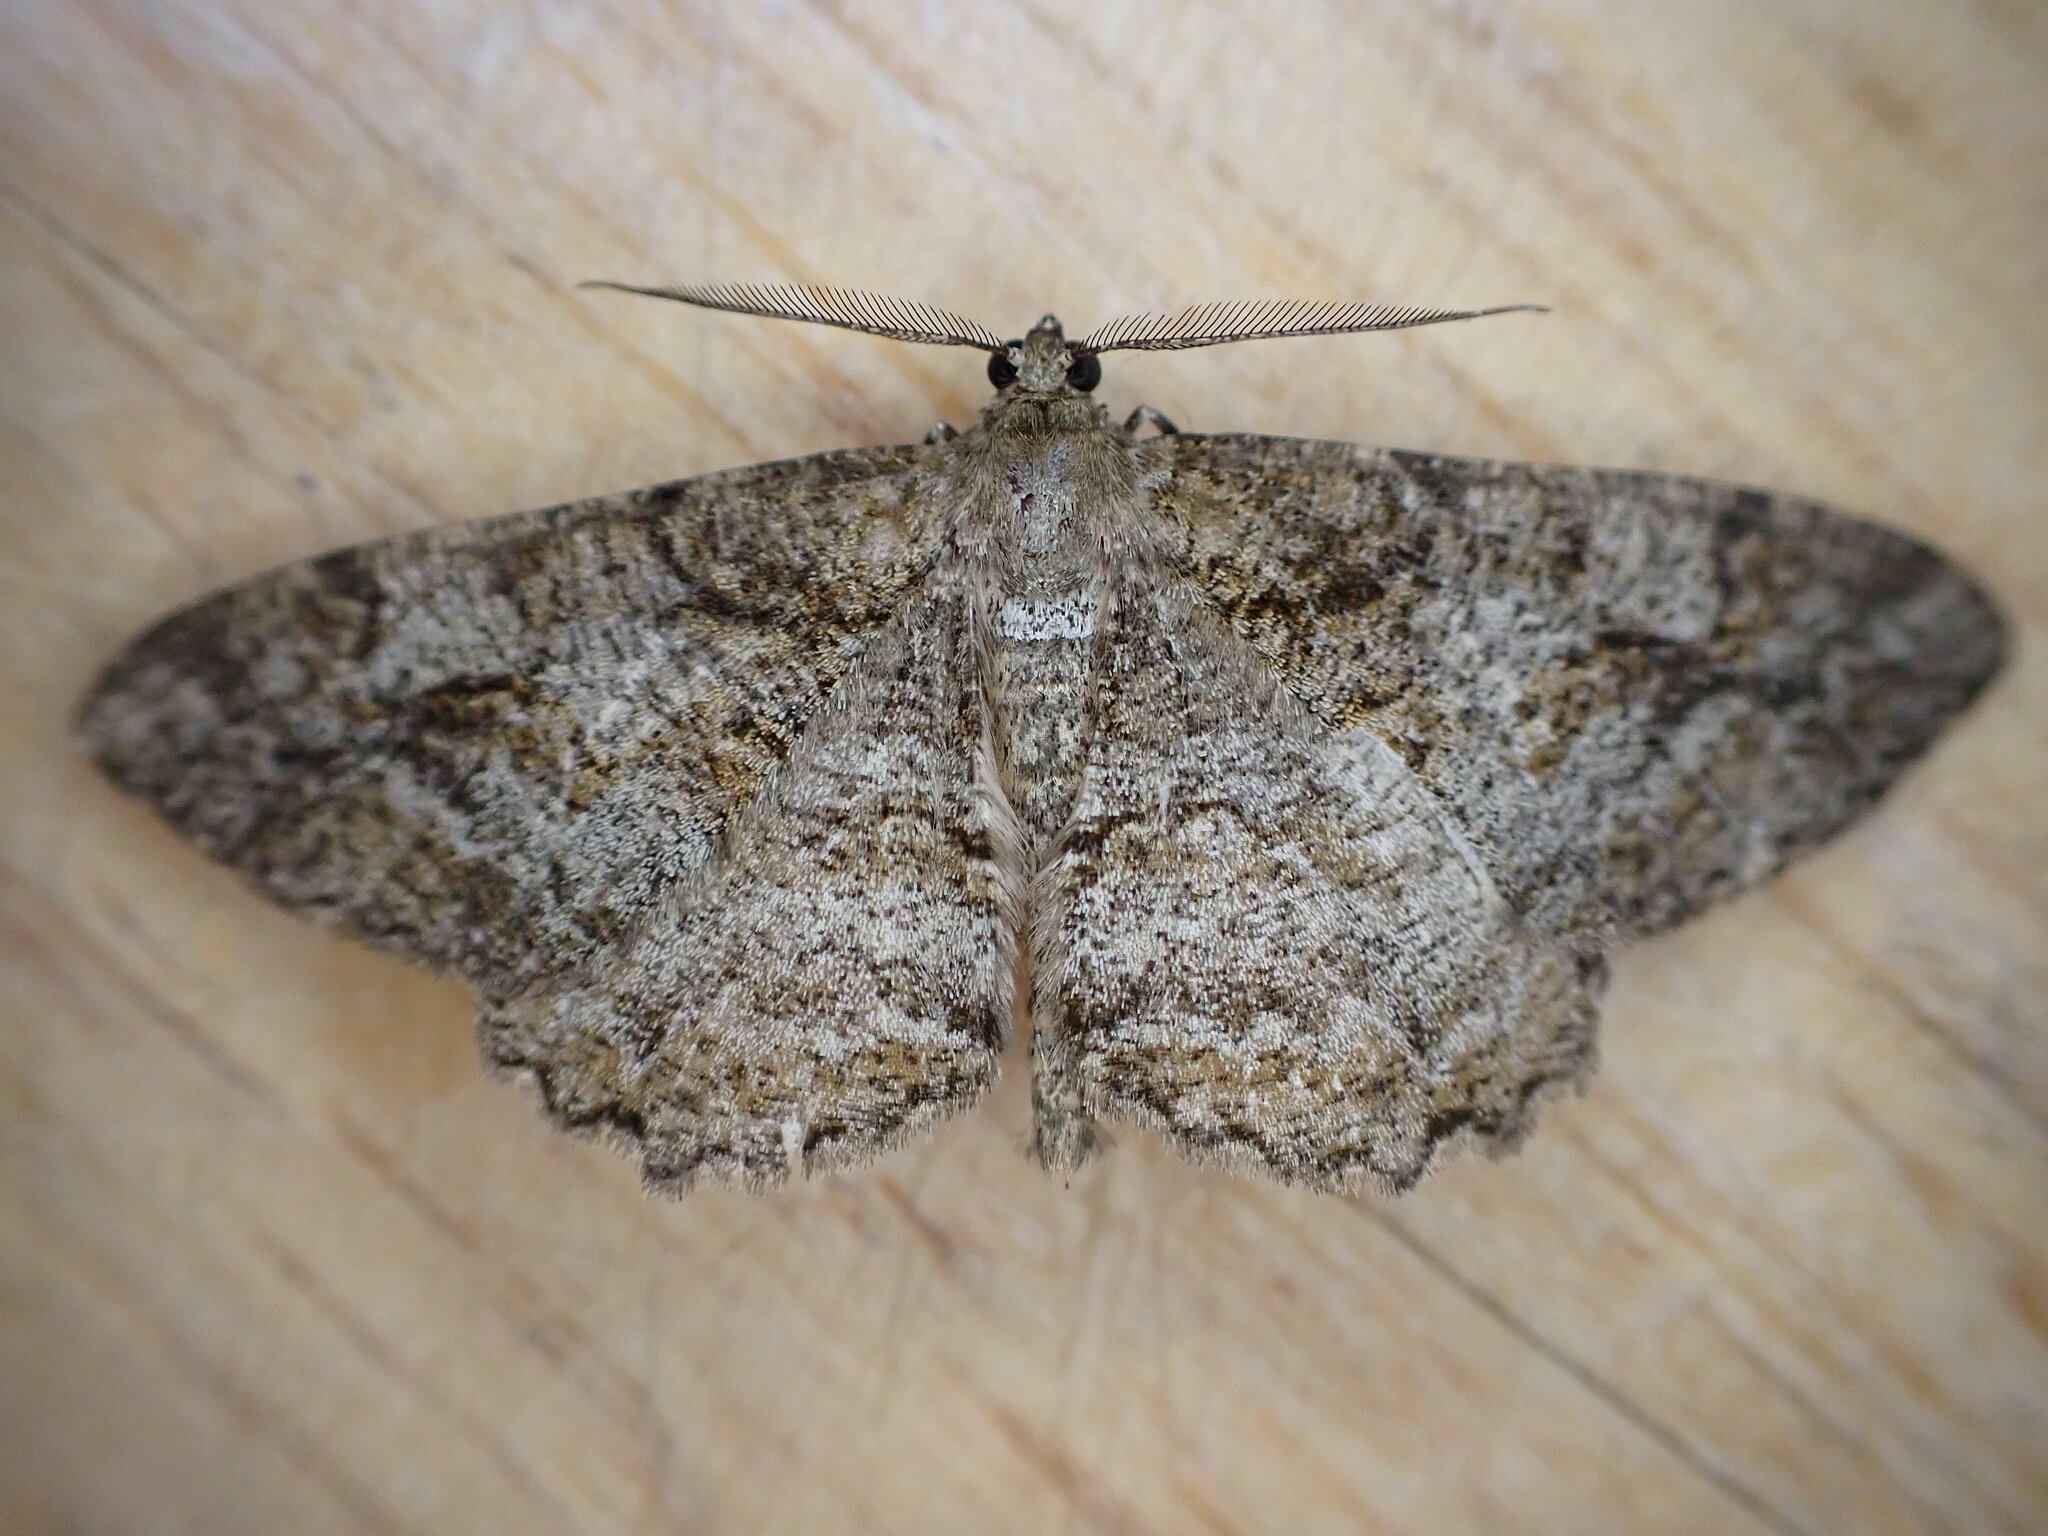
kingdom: Animalia
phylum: Arthropoda
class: Insecta
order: Lepidoptera
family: Geometridae
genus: Alcis
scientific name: Alcis repandata
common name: Mottled beauty
